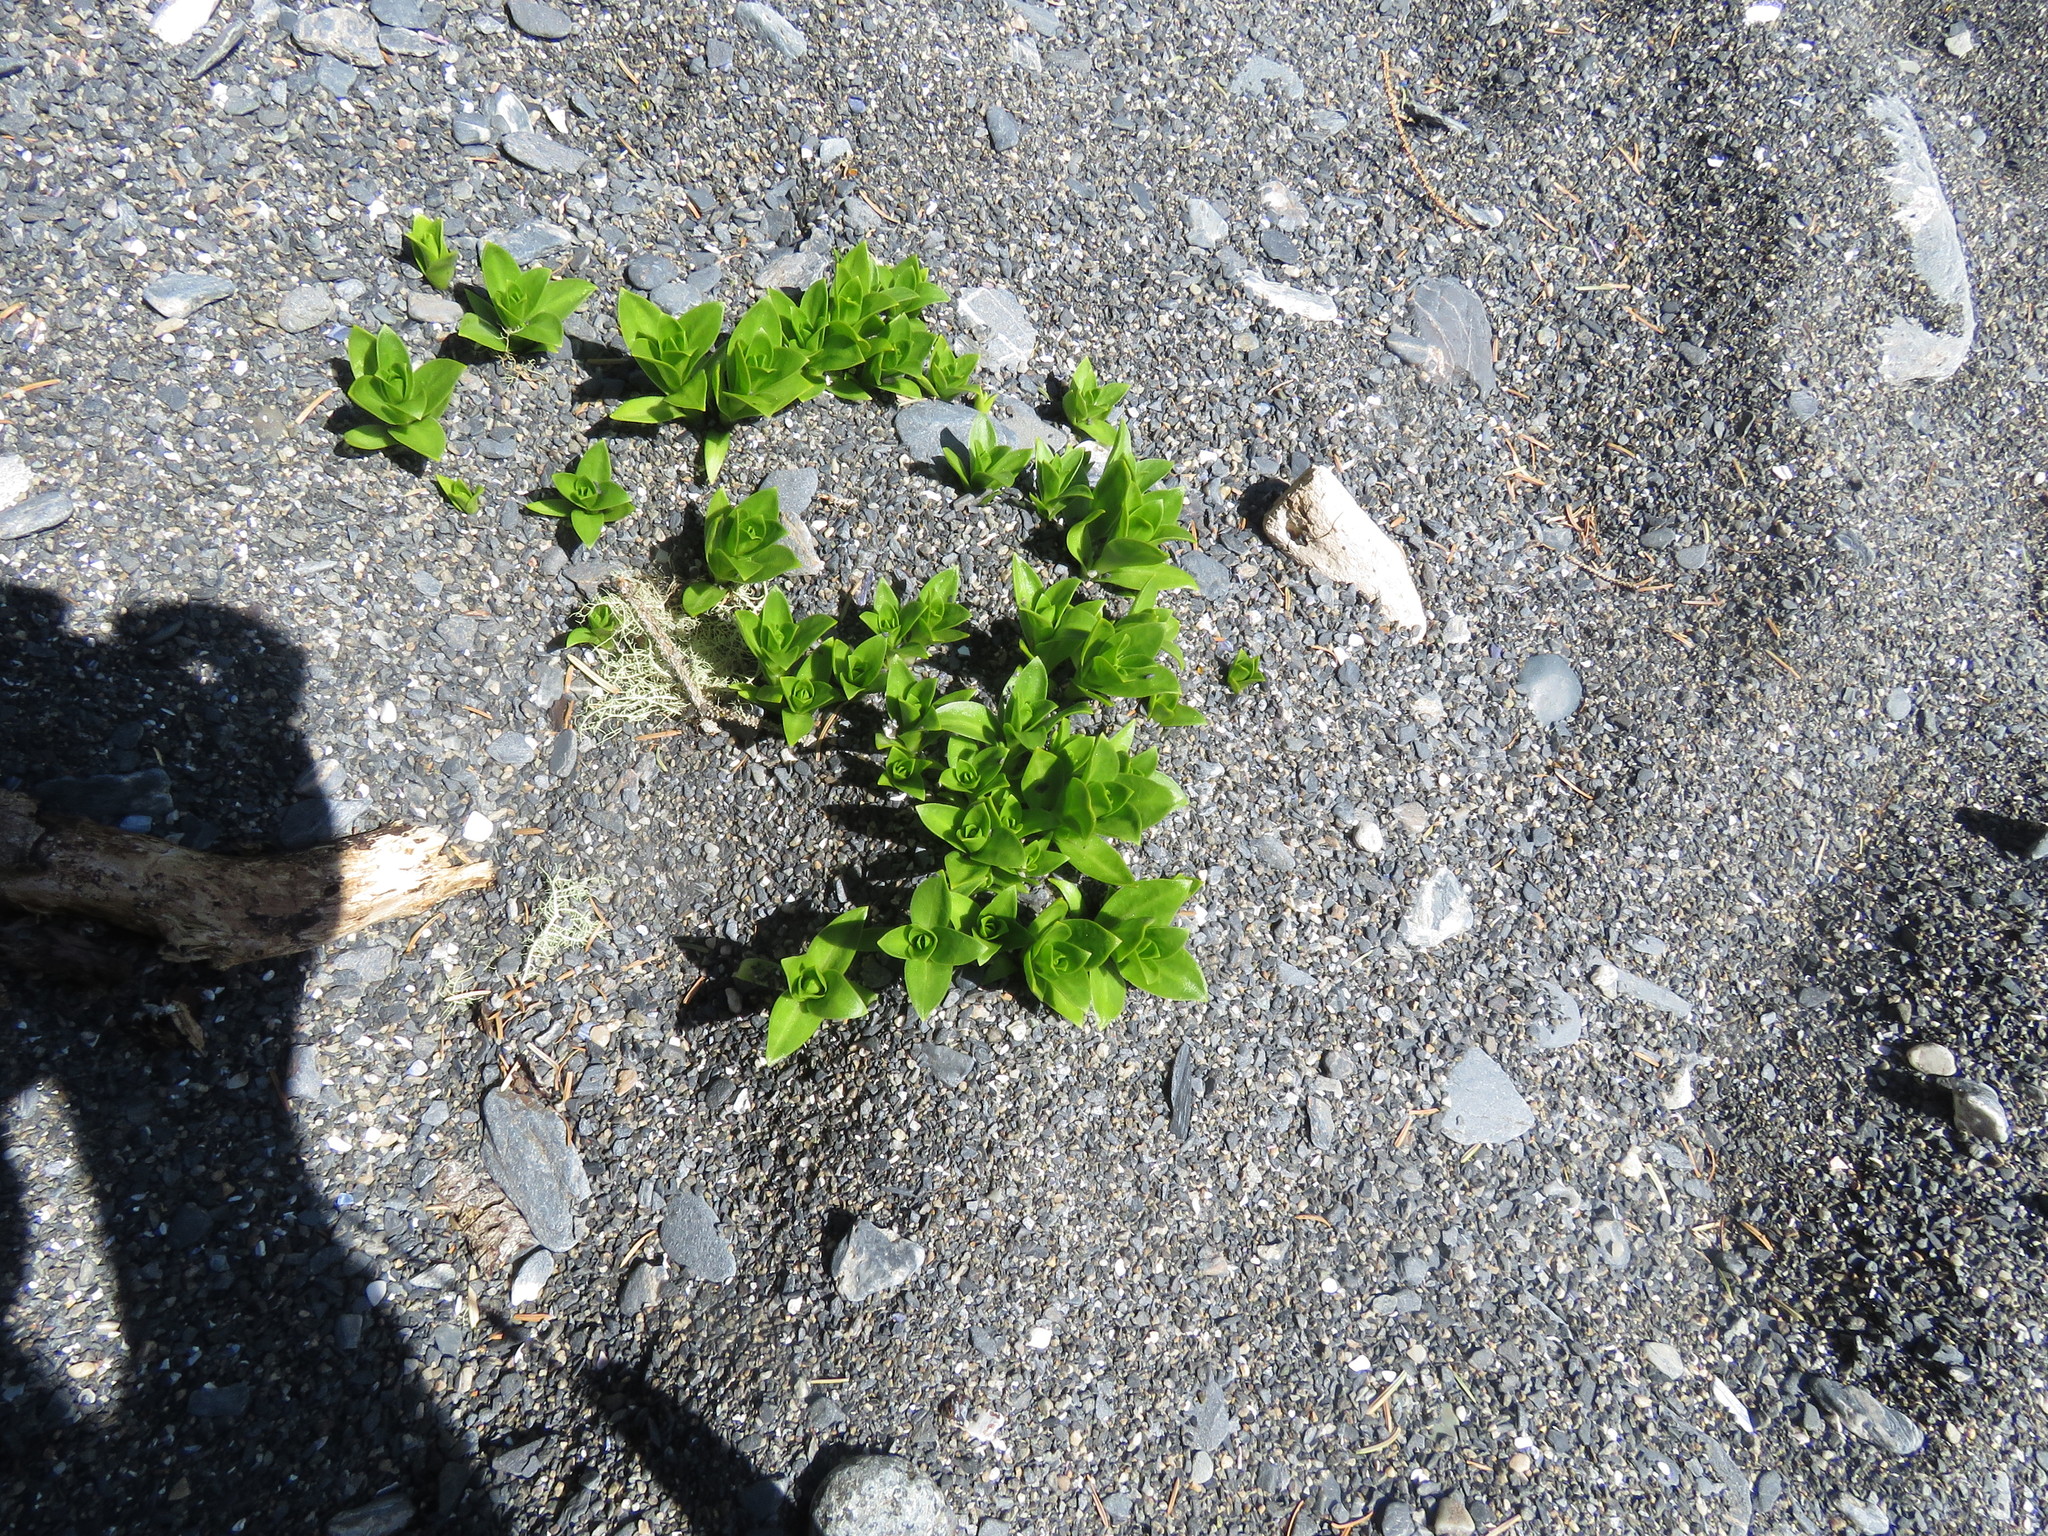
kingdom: Plantae
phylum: Tracheophyta
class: Magnoliopsida
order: Caryophyllales
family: Caryophyllaceae
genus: Honckenya
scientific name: Honckenya peploides
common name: Sea sandwort
